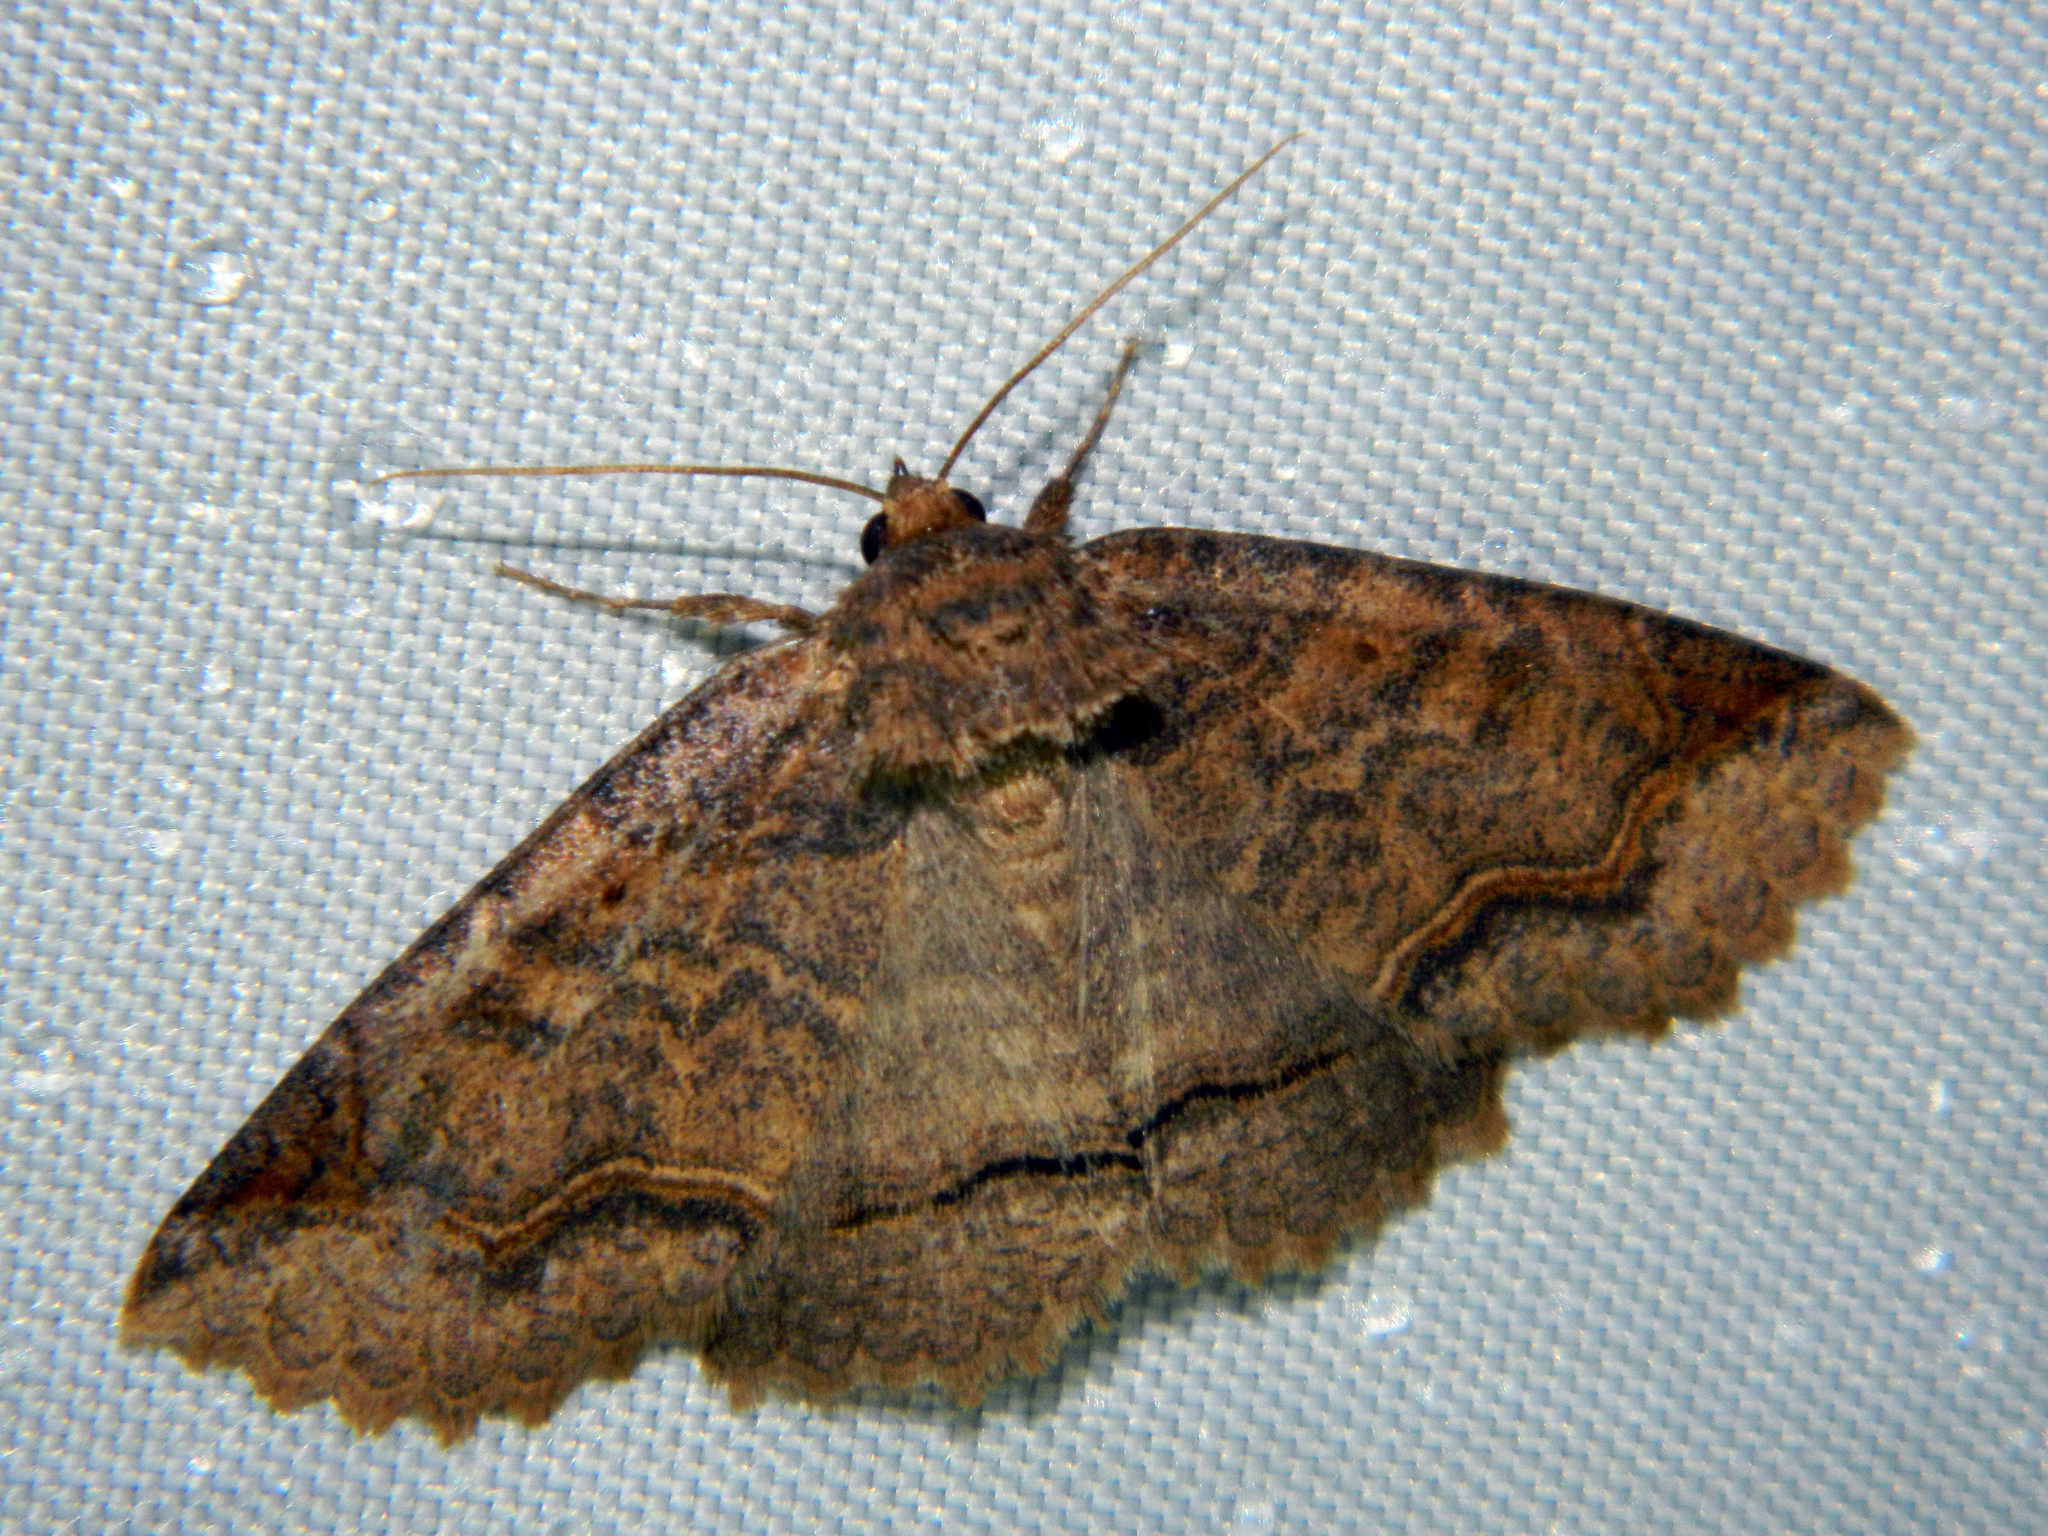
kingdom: Animalia
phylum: Arthropoda
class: Insecta
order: Lepidoptera
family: Erebidae
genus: Zale
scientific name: Zale unilineata
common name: One-lined zale moth
